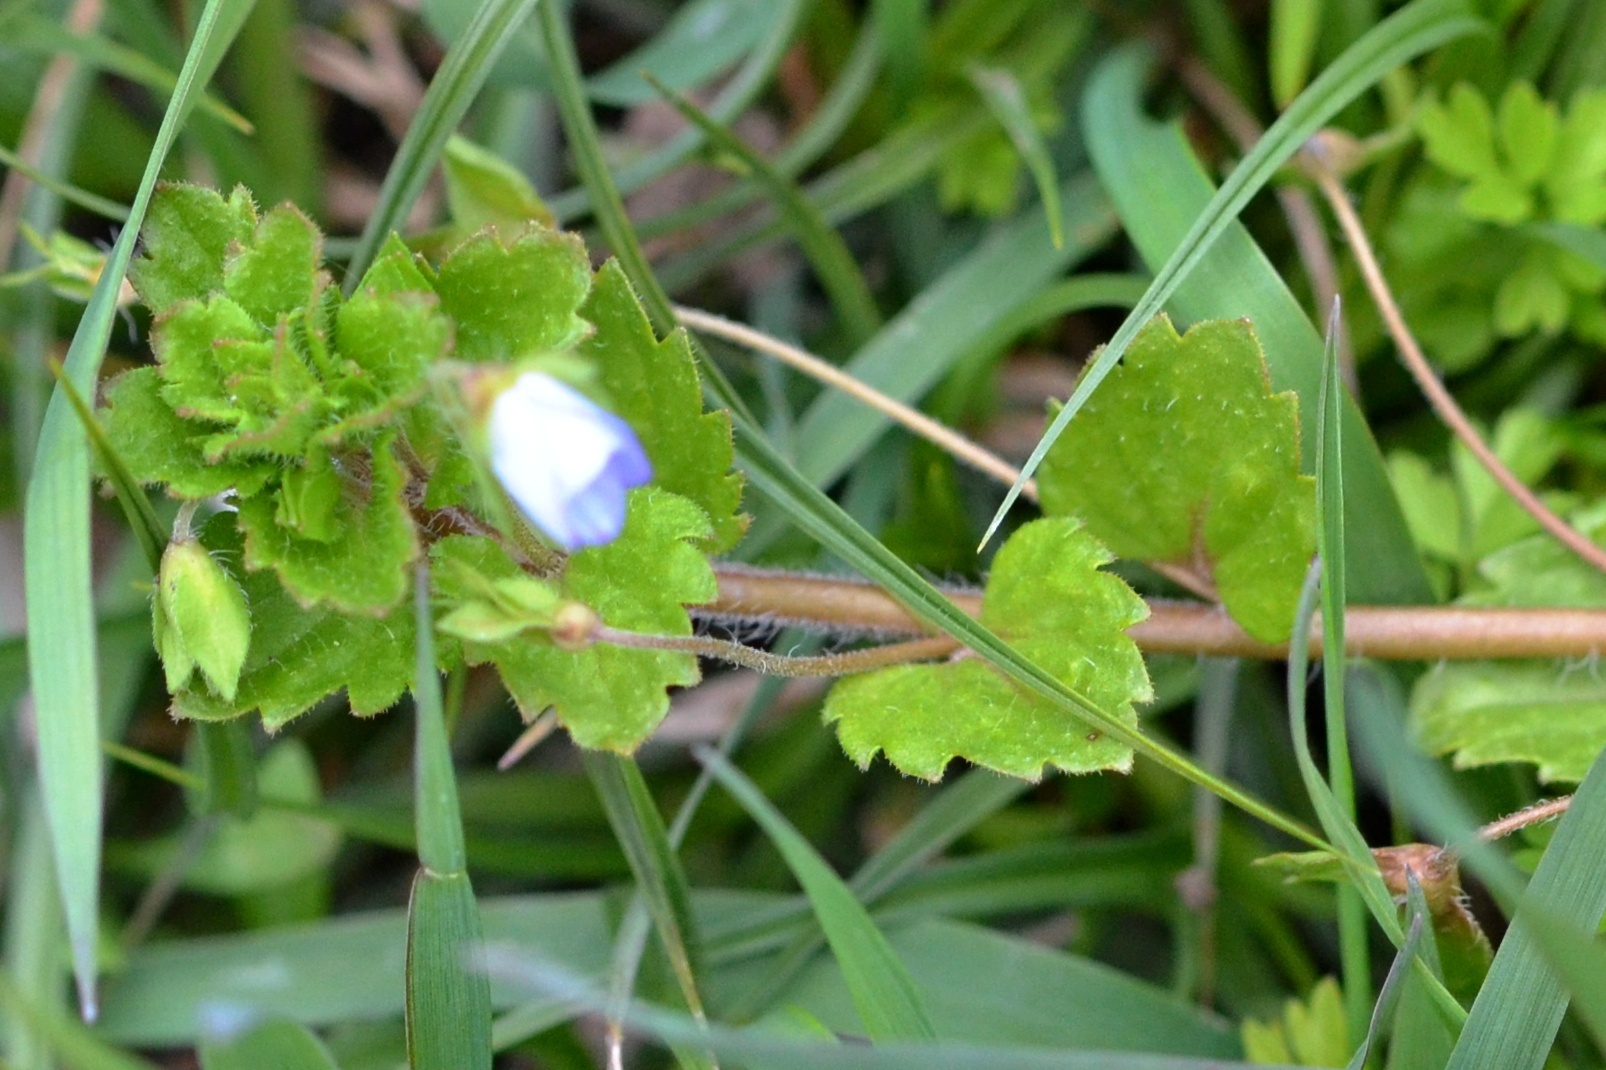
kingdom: Plantae
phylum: Tracheophyta
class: Magnoliopsida
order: Lamiales
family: Plantaginaceae
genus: Veronica
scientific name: Veronica persica
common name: Common field-speedwell
